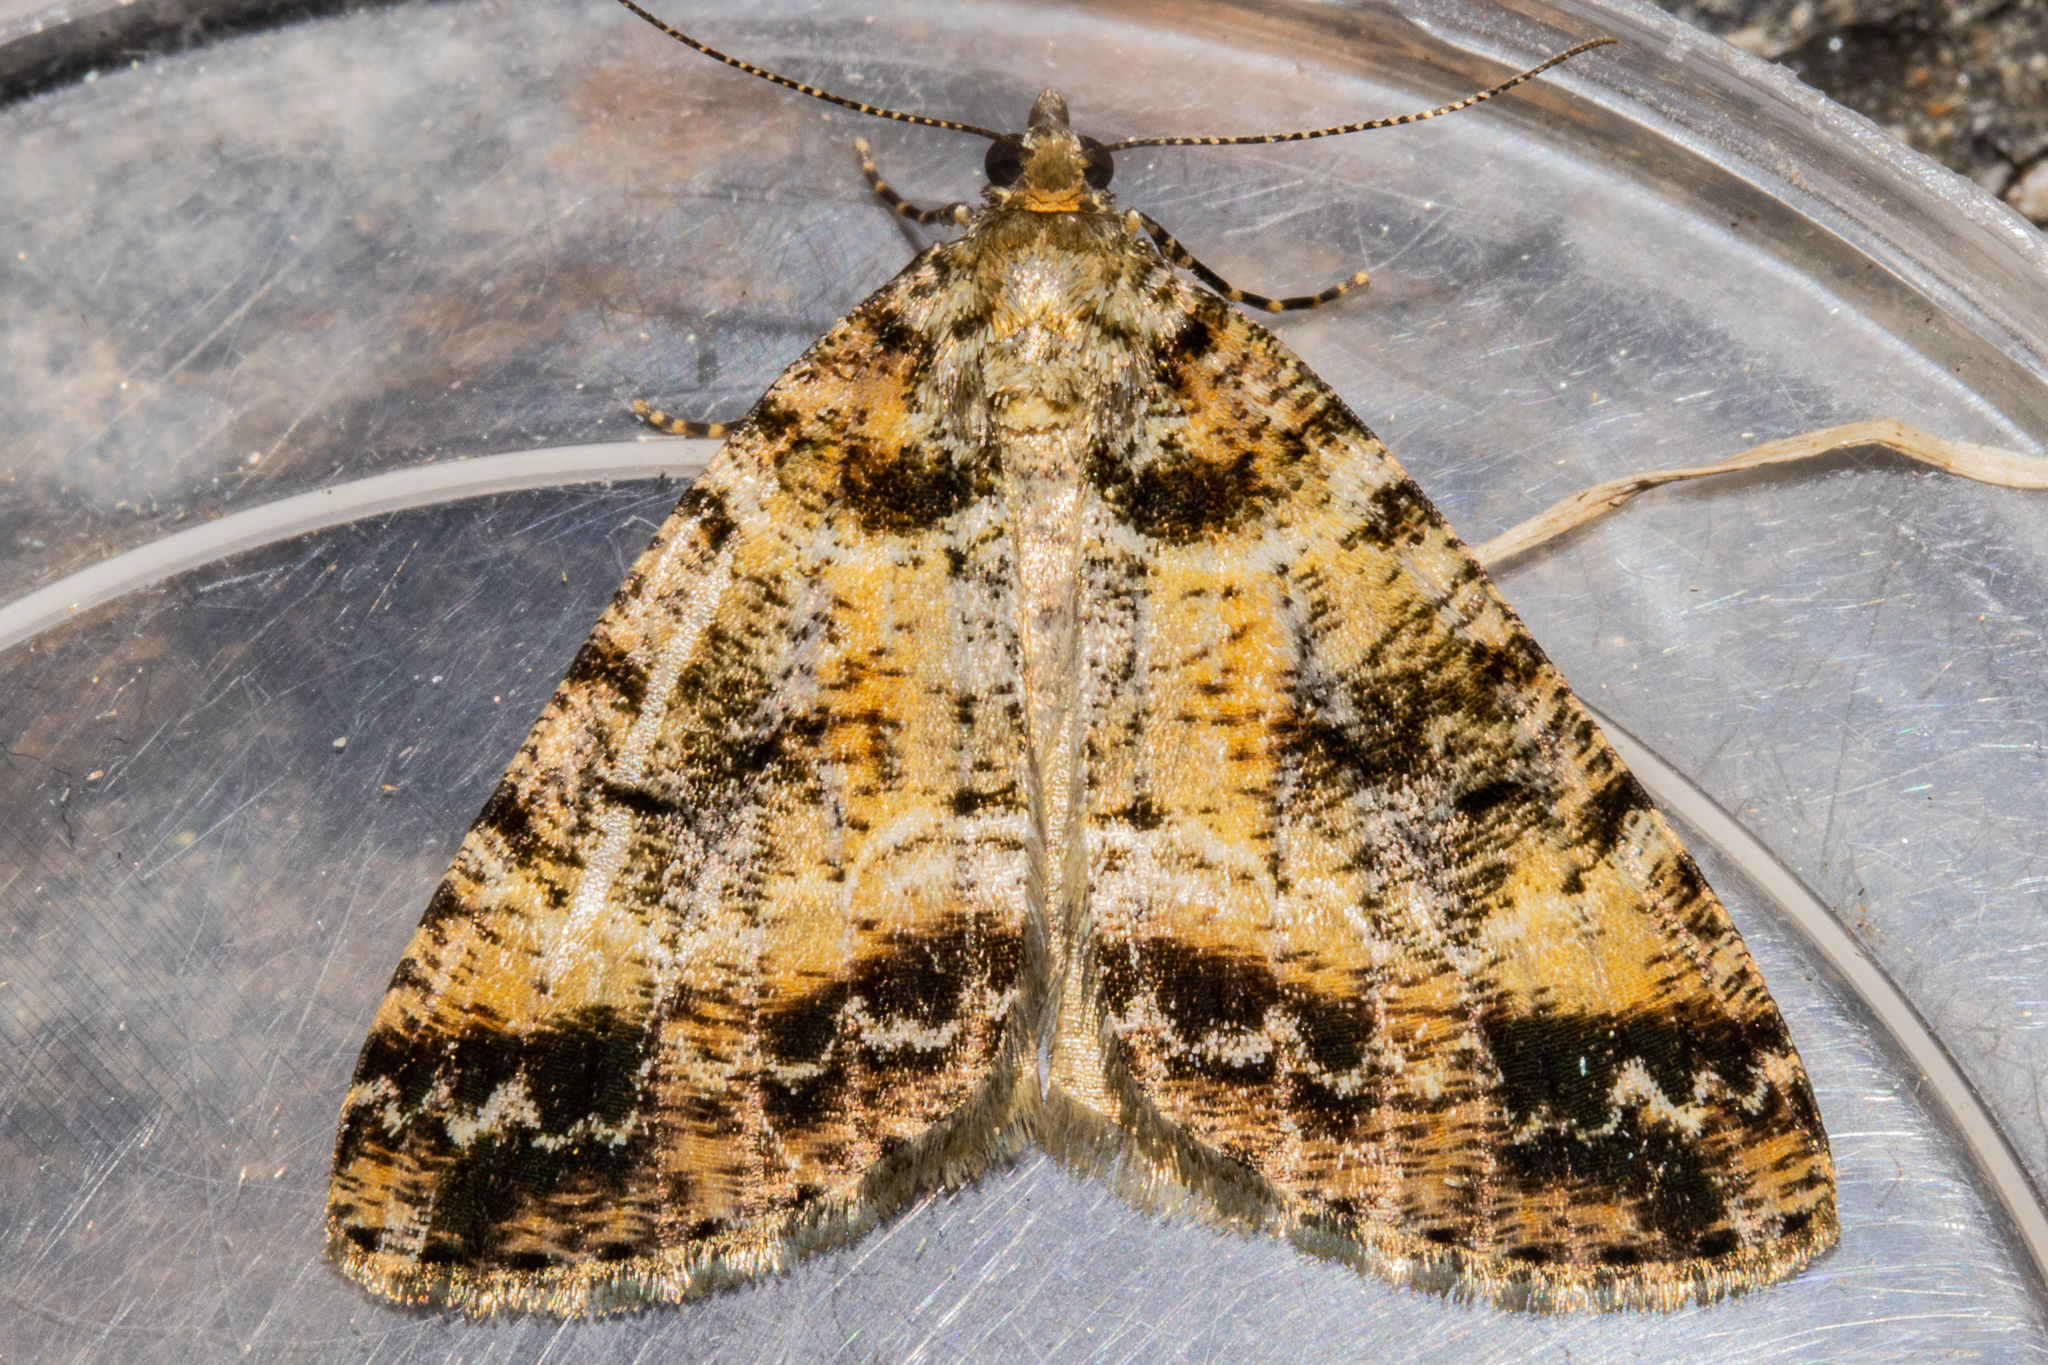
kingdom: Animalia
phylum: Arthropoda
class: Insecta
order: Lepidoptera
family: Geometridae
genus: Pseudocoremia
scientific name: Pseudocoremia productata
